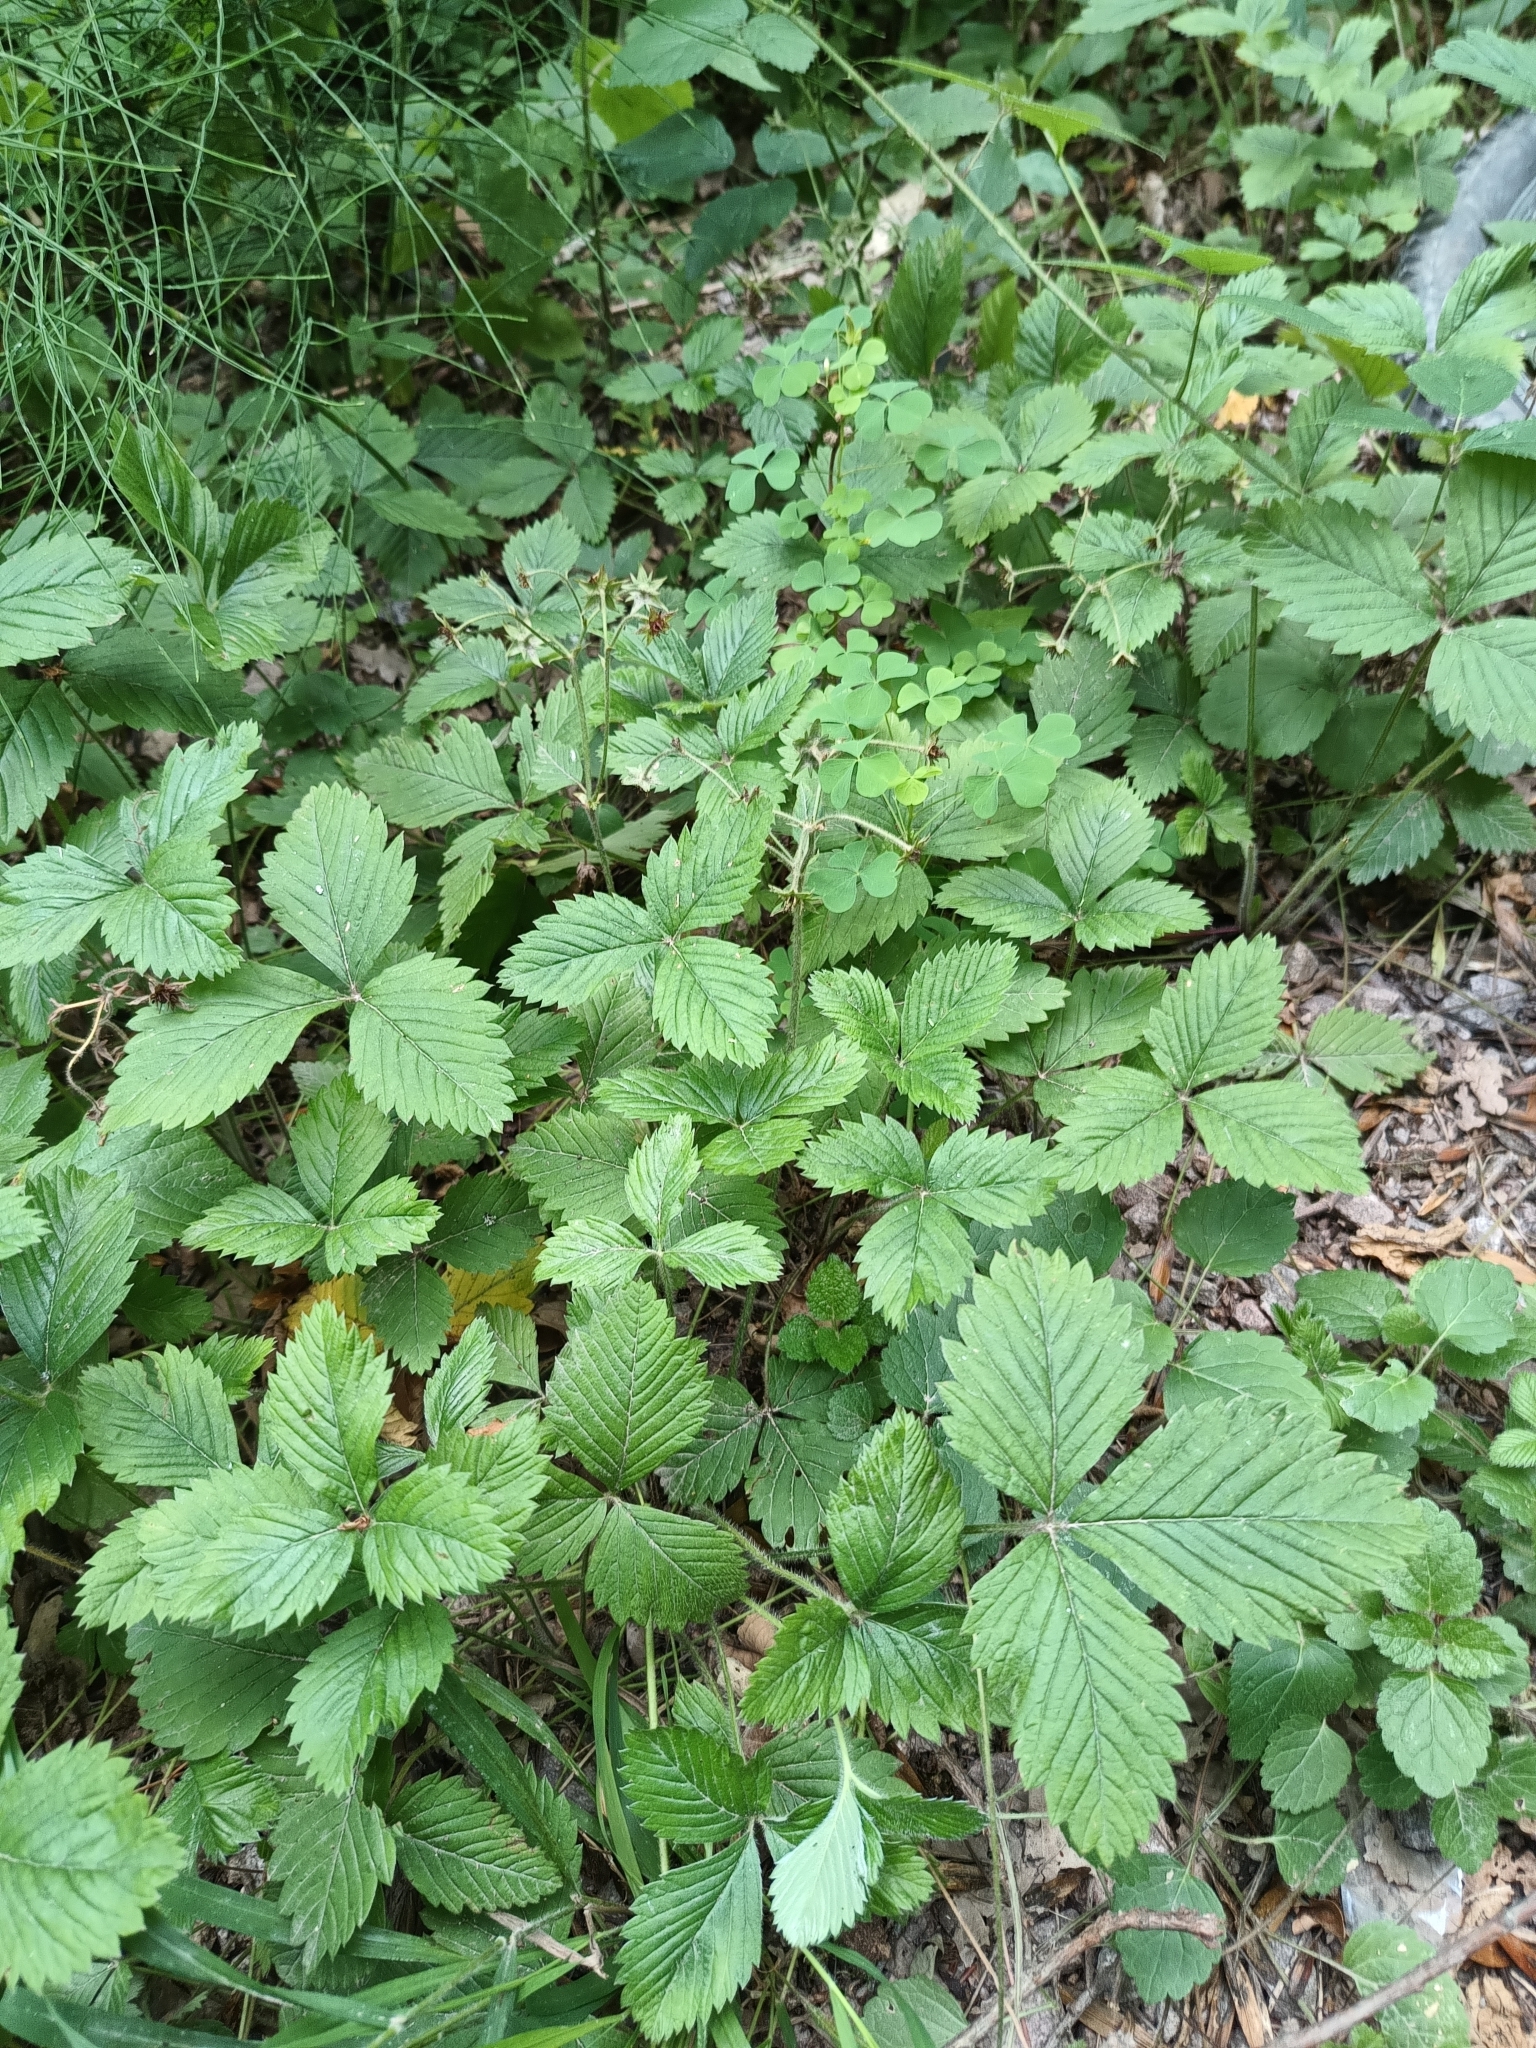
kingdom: Plantae
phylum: Tracheophyta
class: Magnoliopsida
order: Rosales
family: Rosaceae
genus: Fragaria
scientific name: Fragaria moschata
